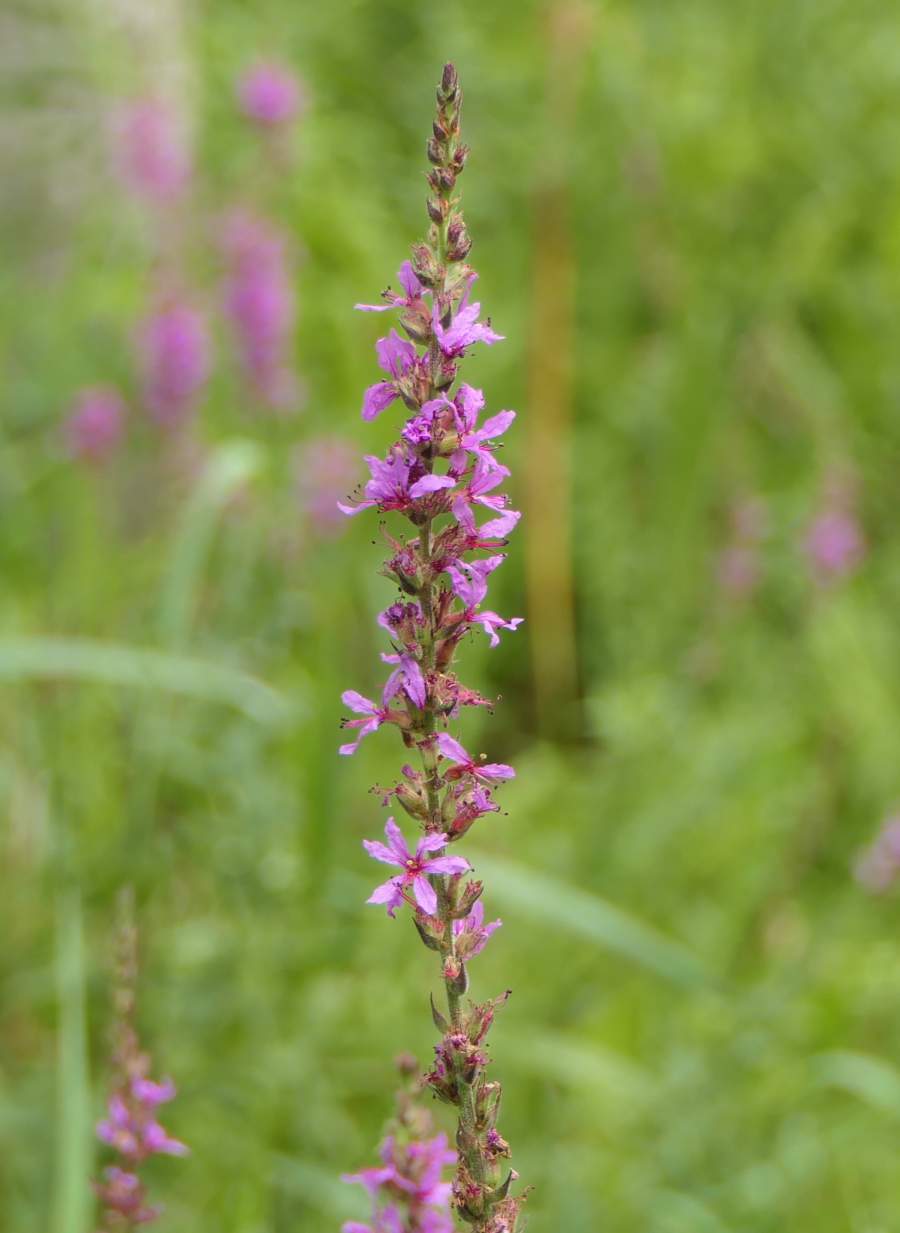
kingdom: Plantae
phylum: Tracheophyta
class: Magnoliopsida
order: Myrtales
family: Lythraceae
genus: Lythrum
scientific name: Lythrum salicaria
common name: Purple loosestrife
